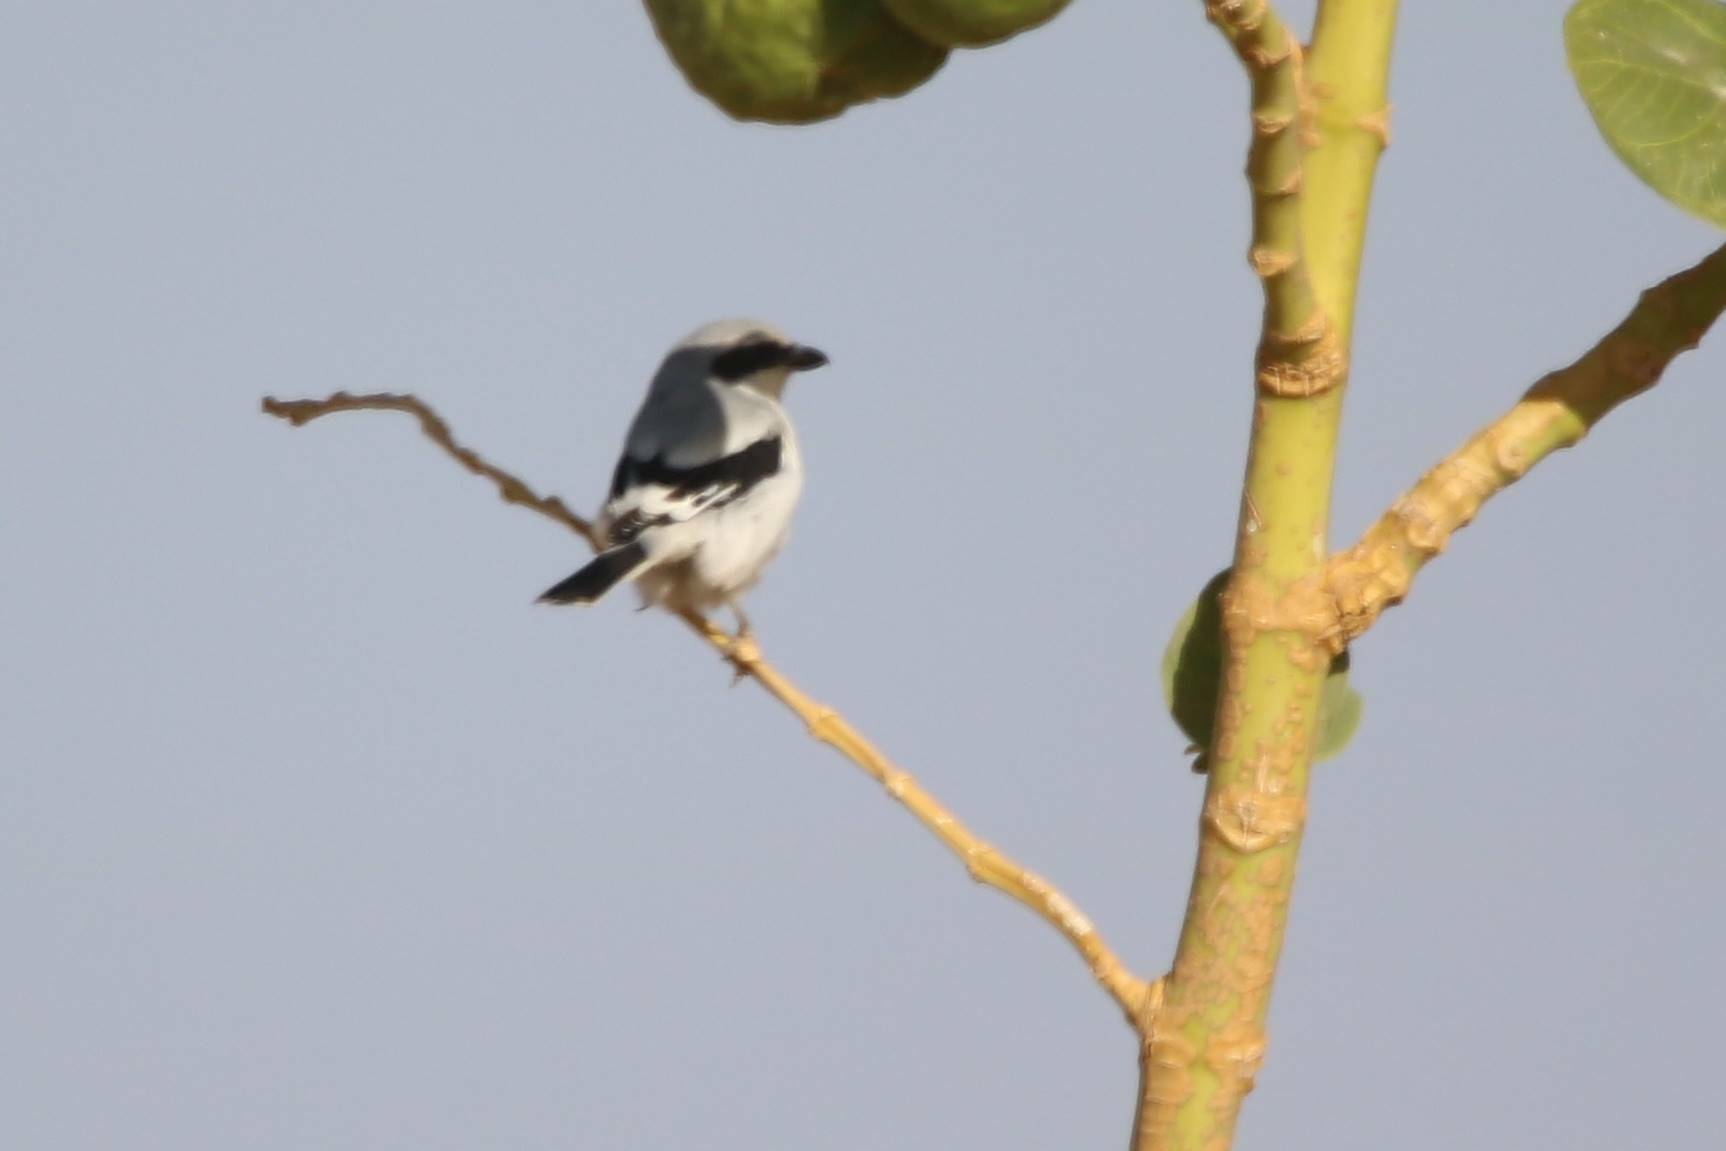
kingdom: Animalia
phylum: Chordata
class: Aves
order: Passeriformes
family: Laniidae
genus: Lanius
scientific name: Lanius excubitor
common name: Great grey shrike
